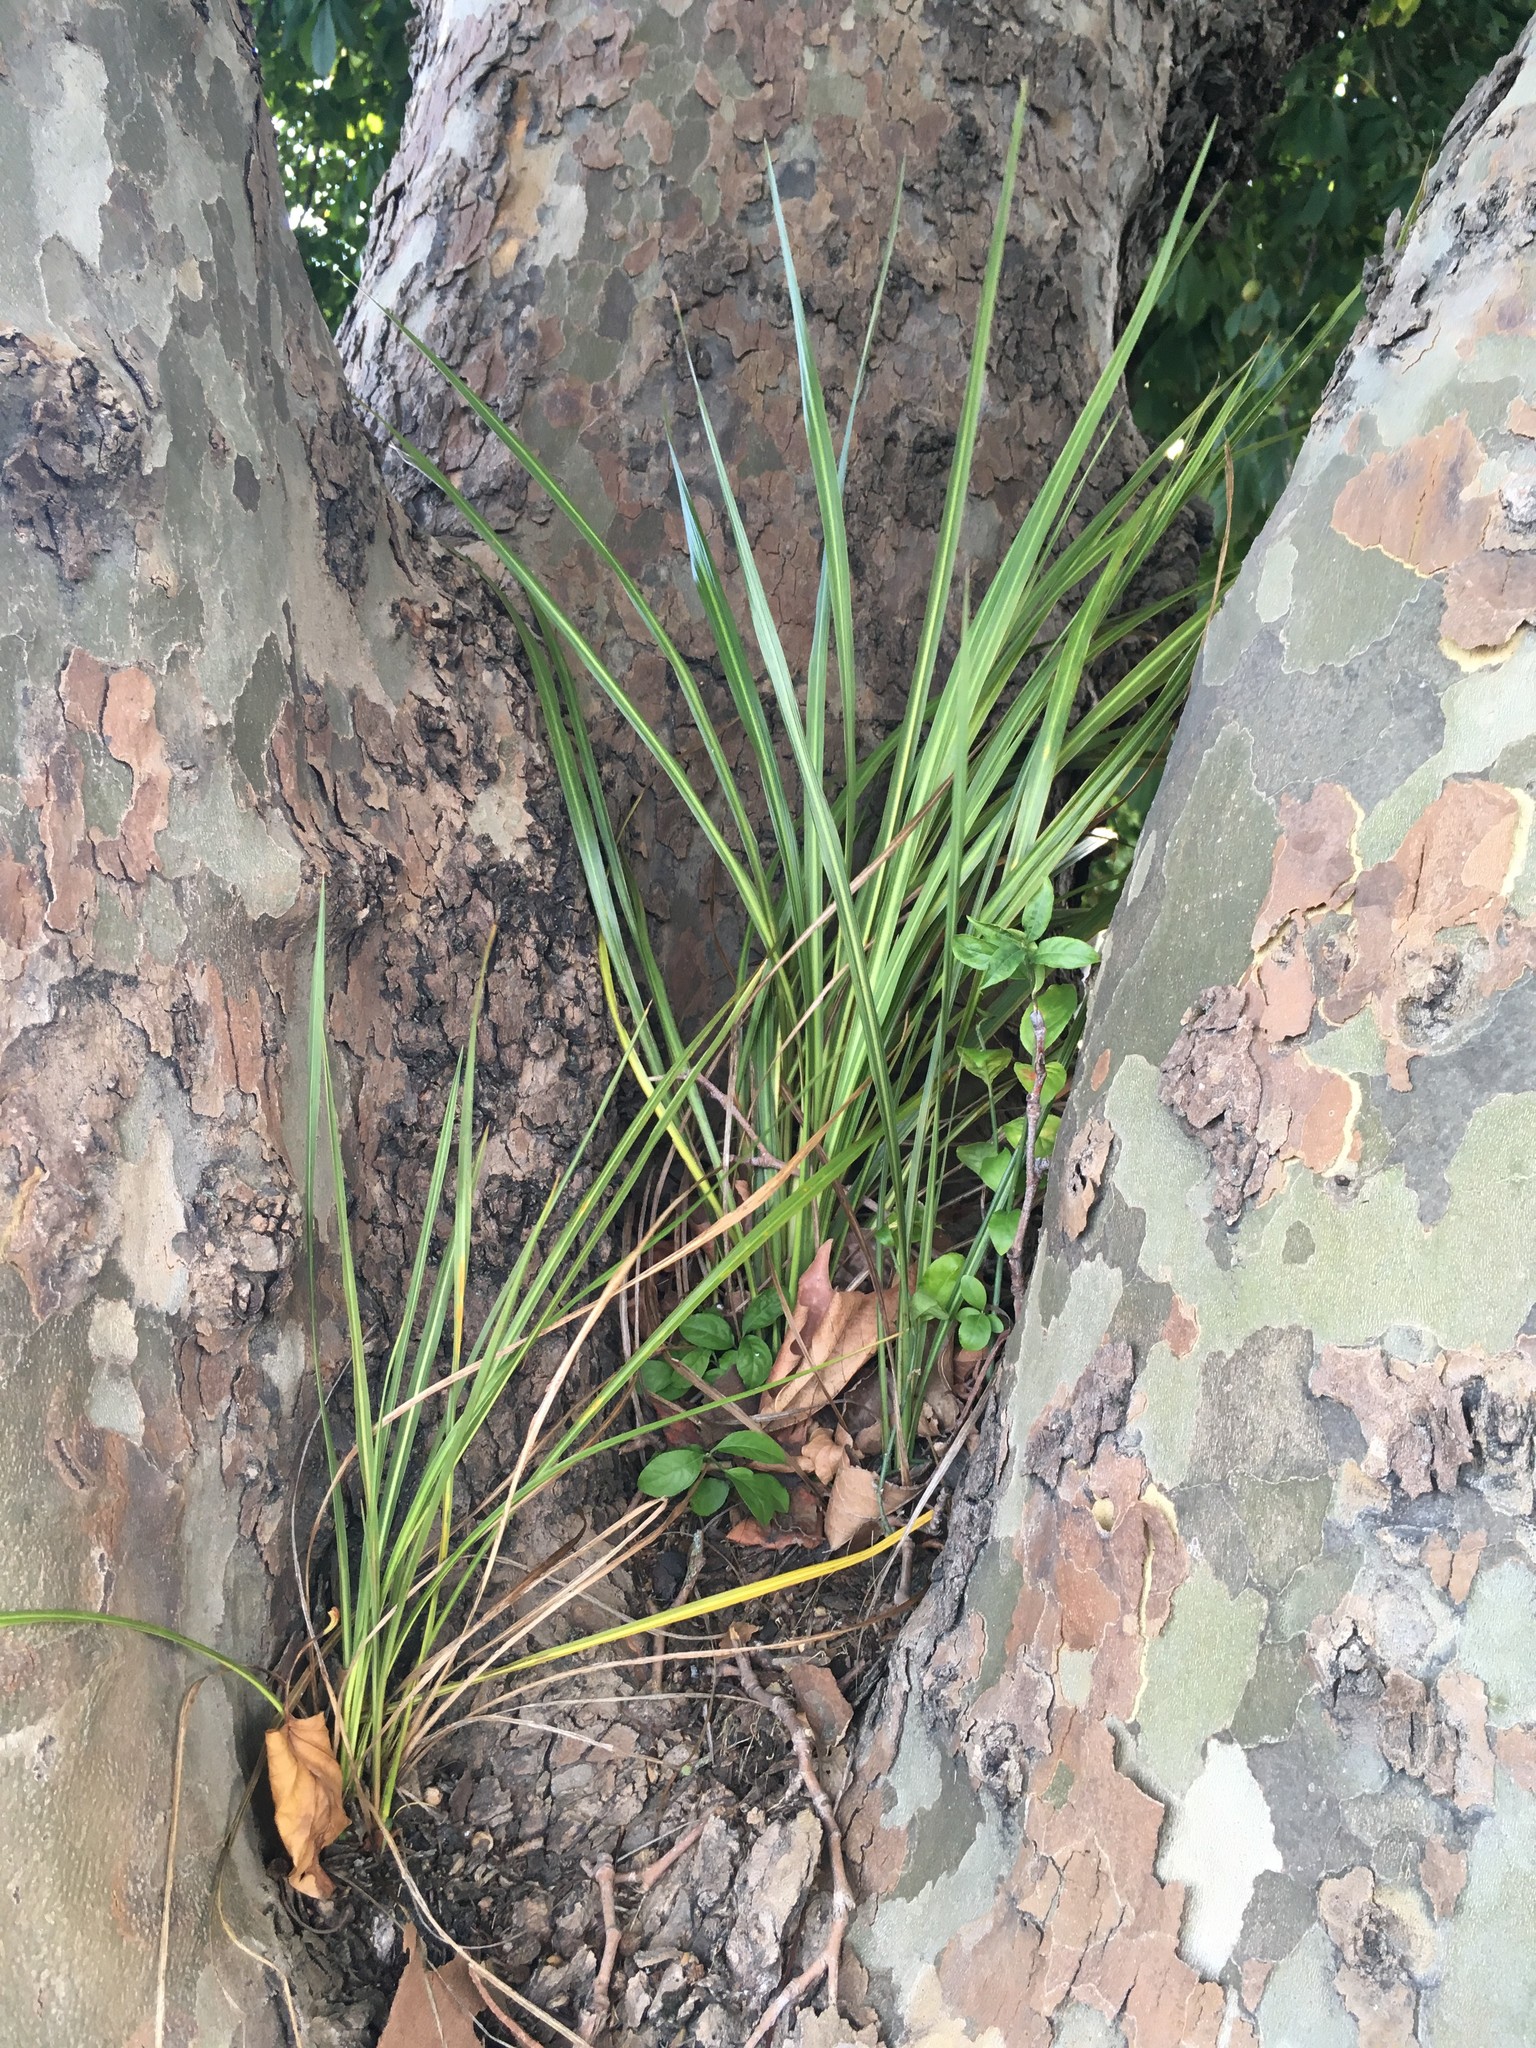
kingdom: Plantae
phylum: Tracheophyta
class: Liliopsida
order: Asparagales
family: Asparagaceae
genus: Cordyline
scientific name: Cordyline australis
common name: Cabbage-palm
